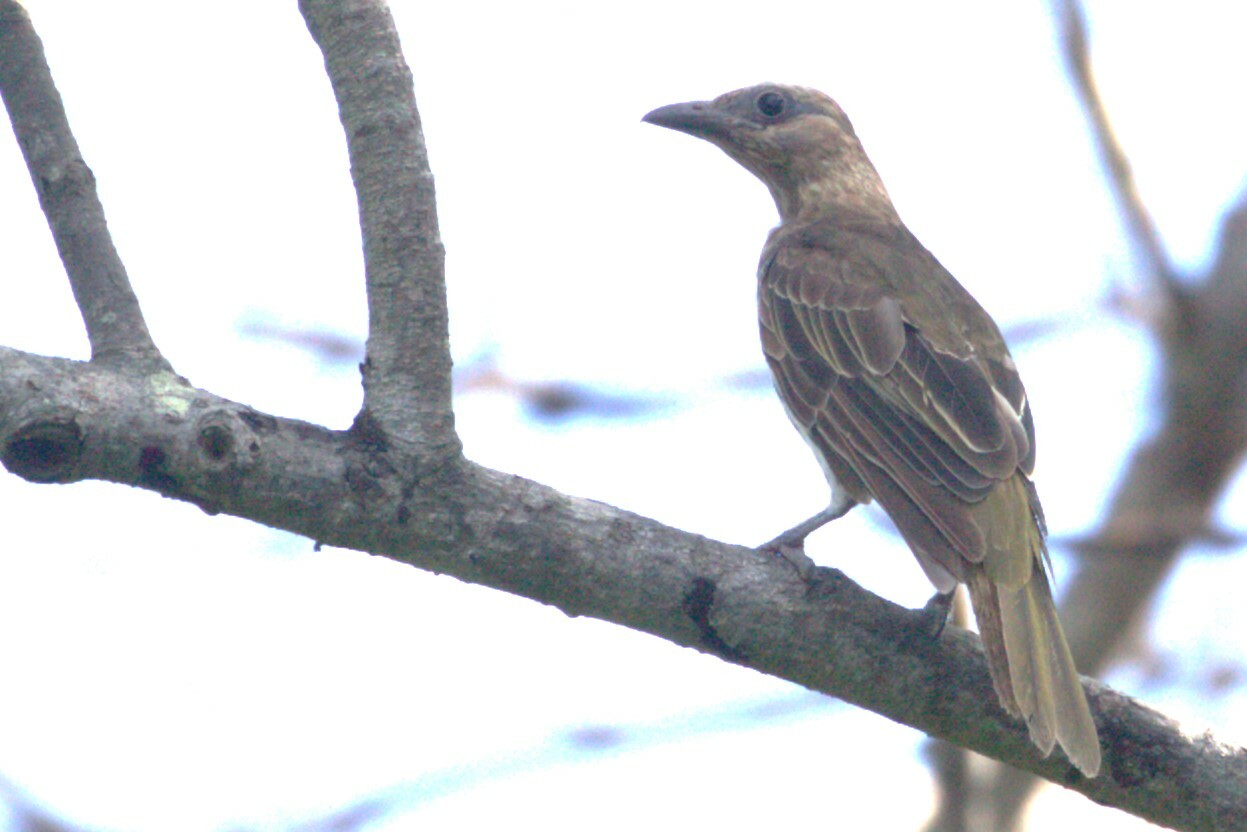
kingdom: Animalia
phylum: Chordata
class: Aves
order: Passeriformes
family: Oriolidae
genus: Sphecotheres
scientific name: Sphecotheres vieilloti
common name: Australasian figbird
